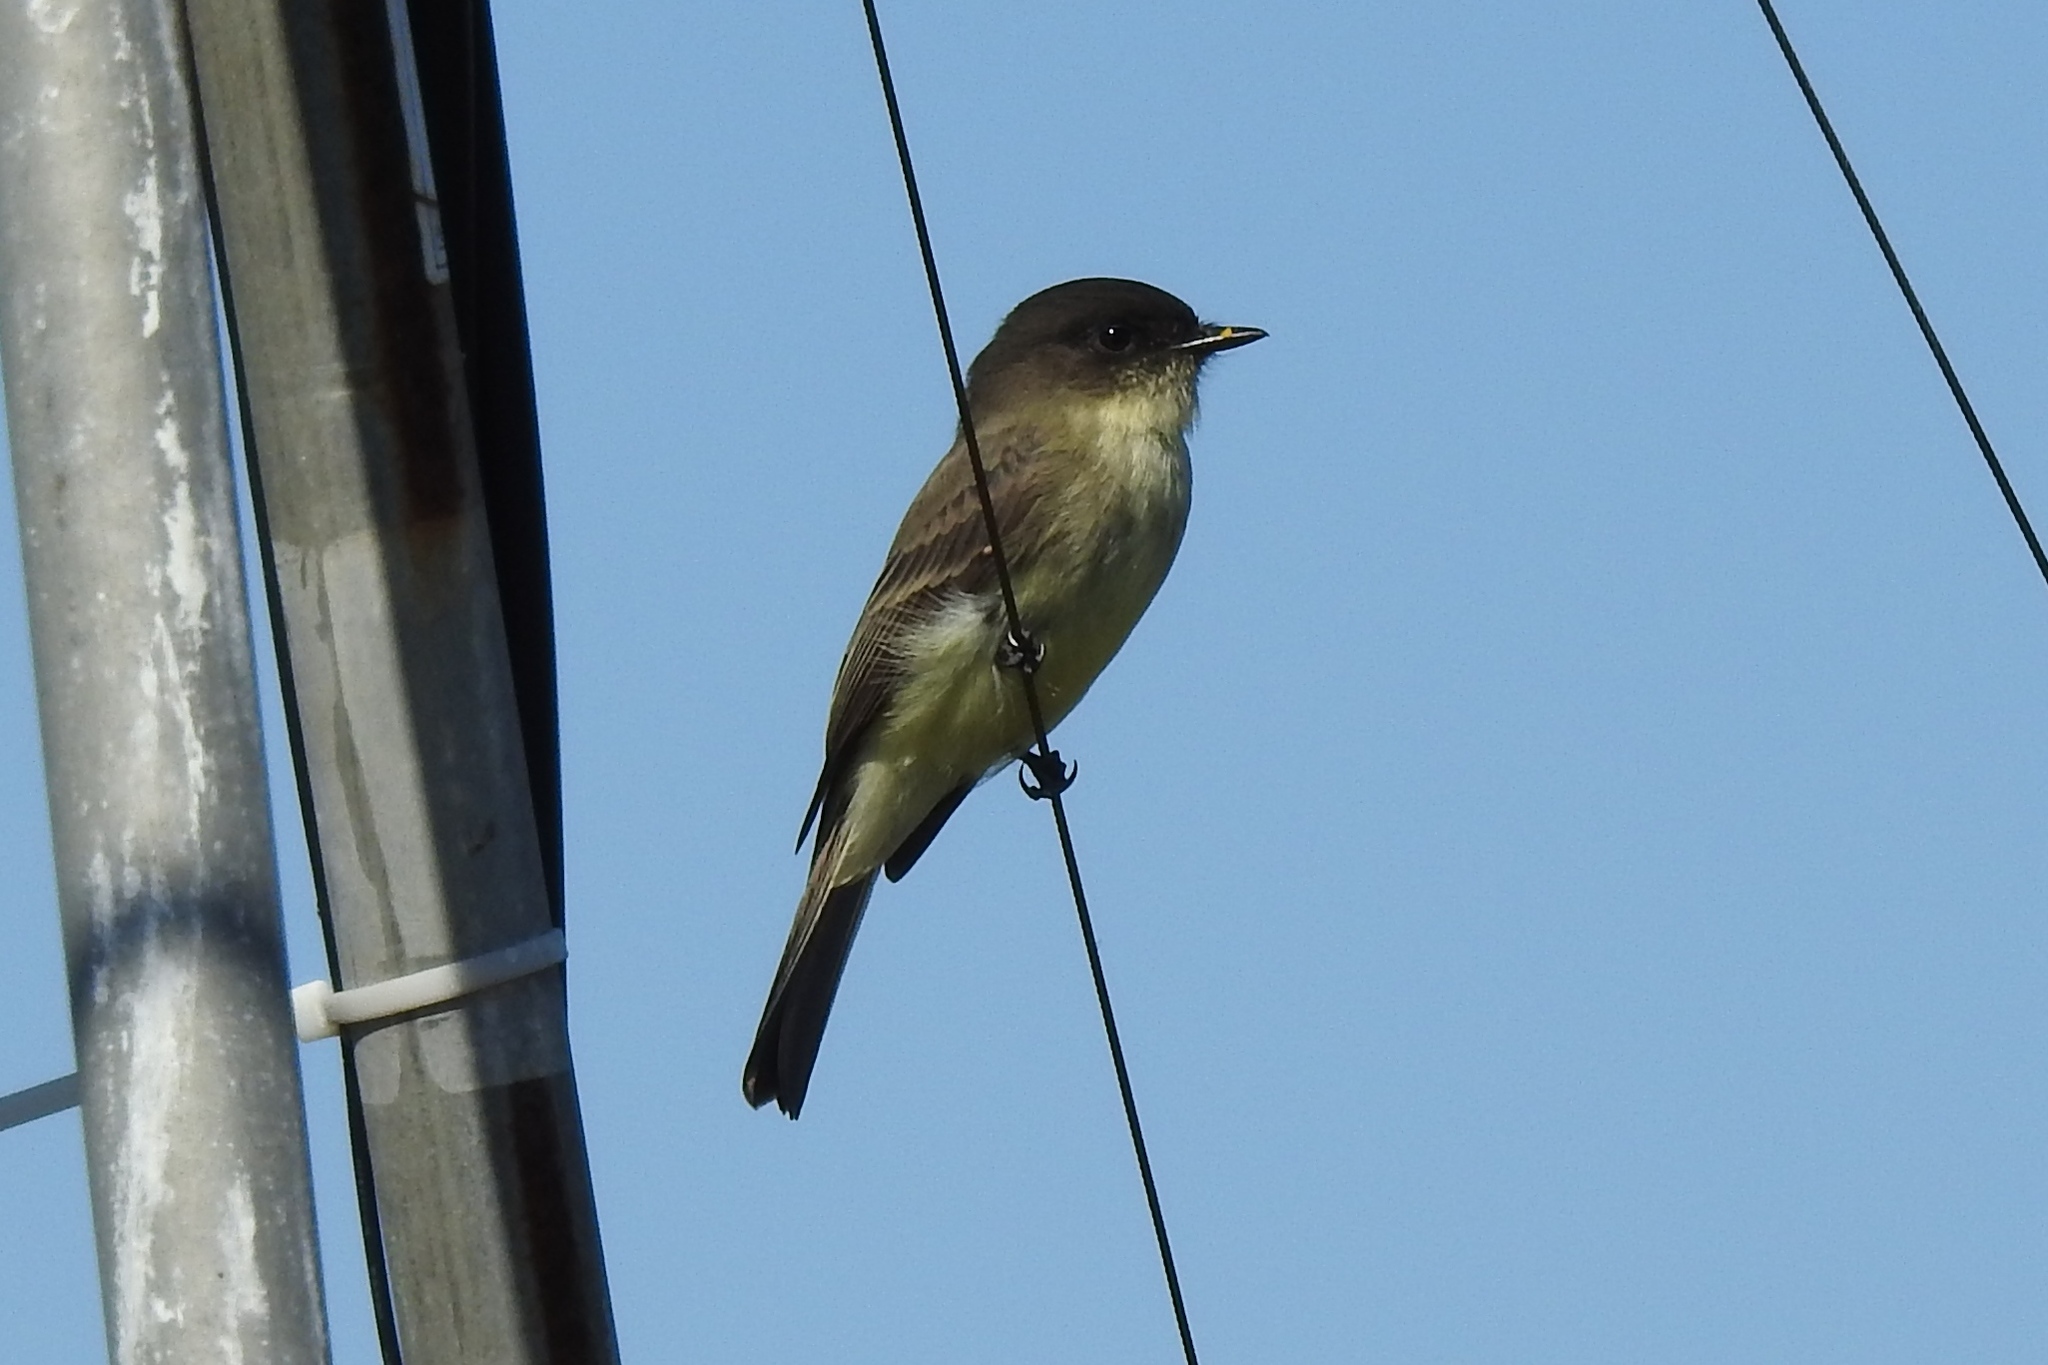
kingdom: Animalia
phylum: Chordata
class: Aves
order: Passeriformes
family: Tyrannidae
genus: Sayornis
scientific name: Sayornis phoebe
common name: Eastern phoebe
